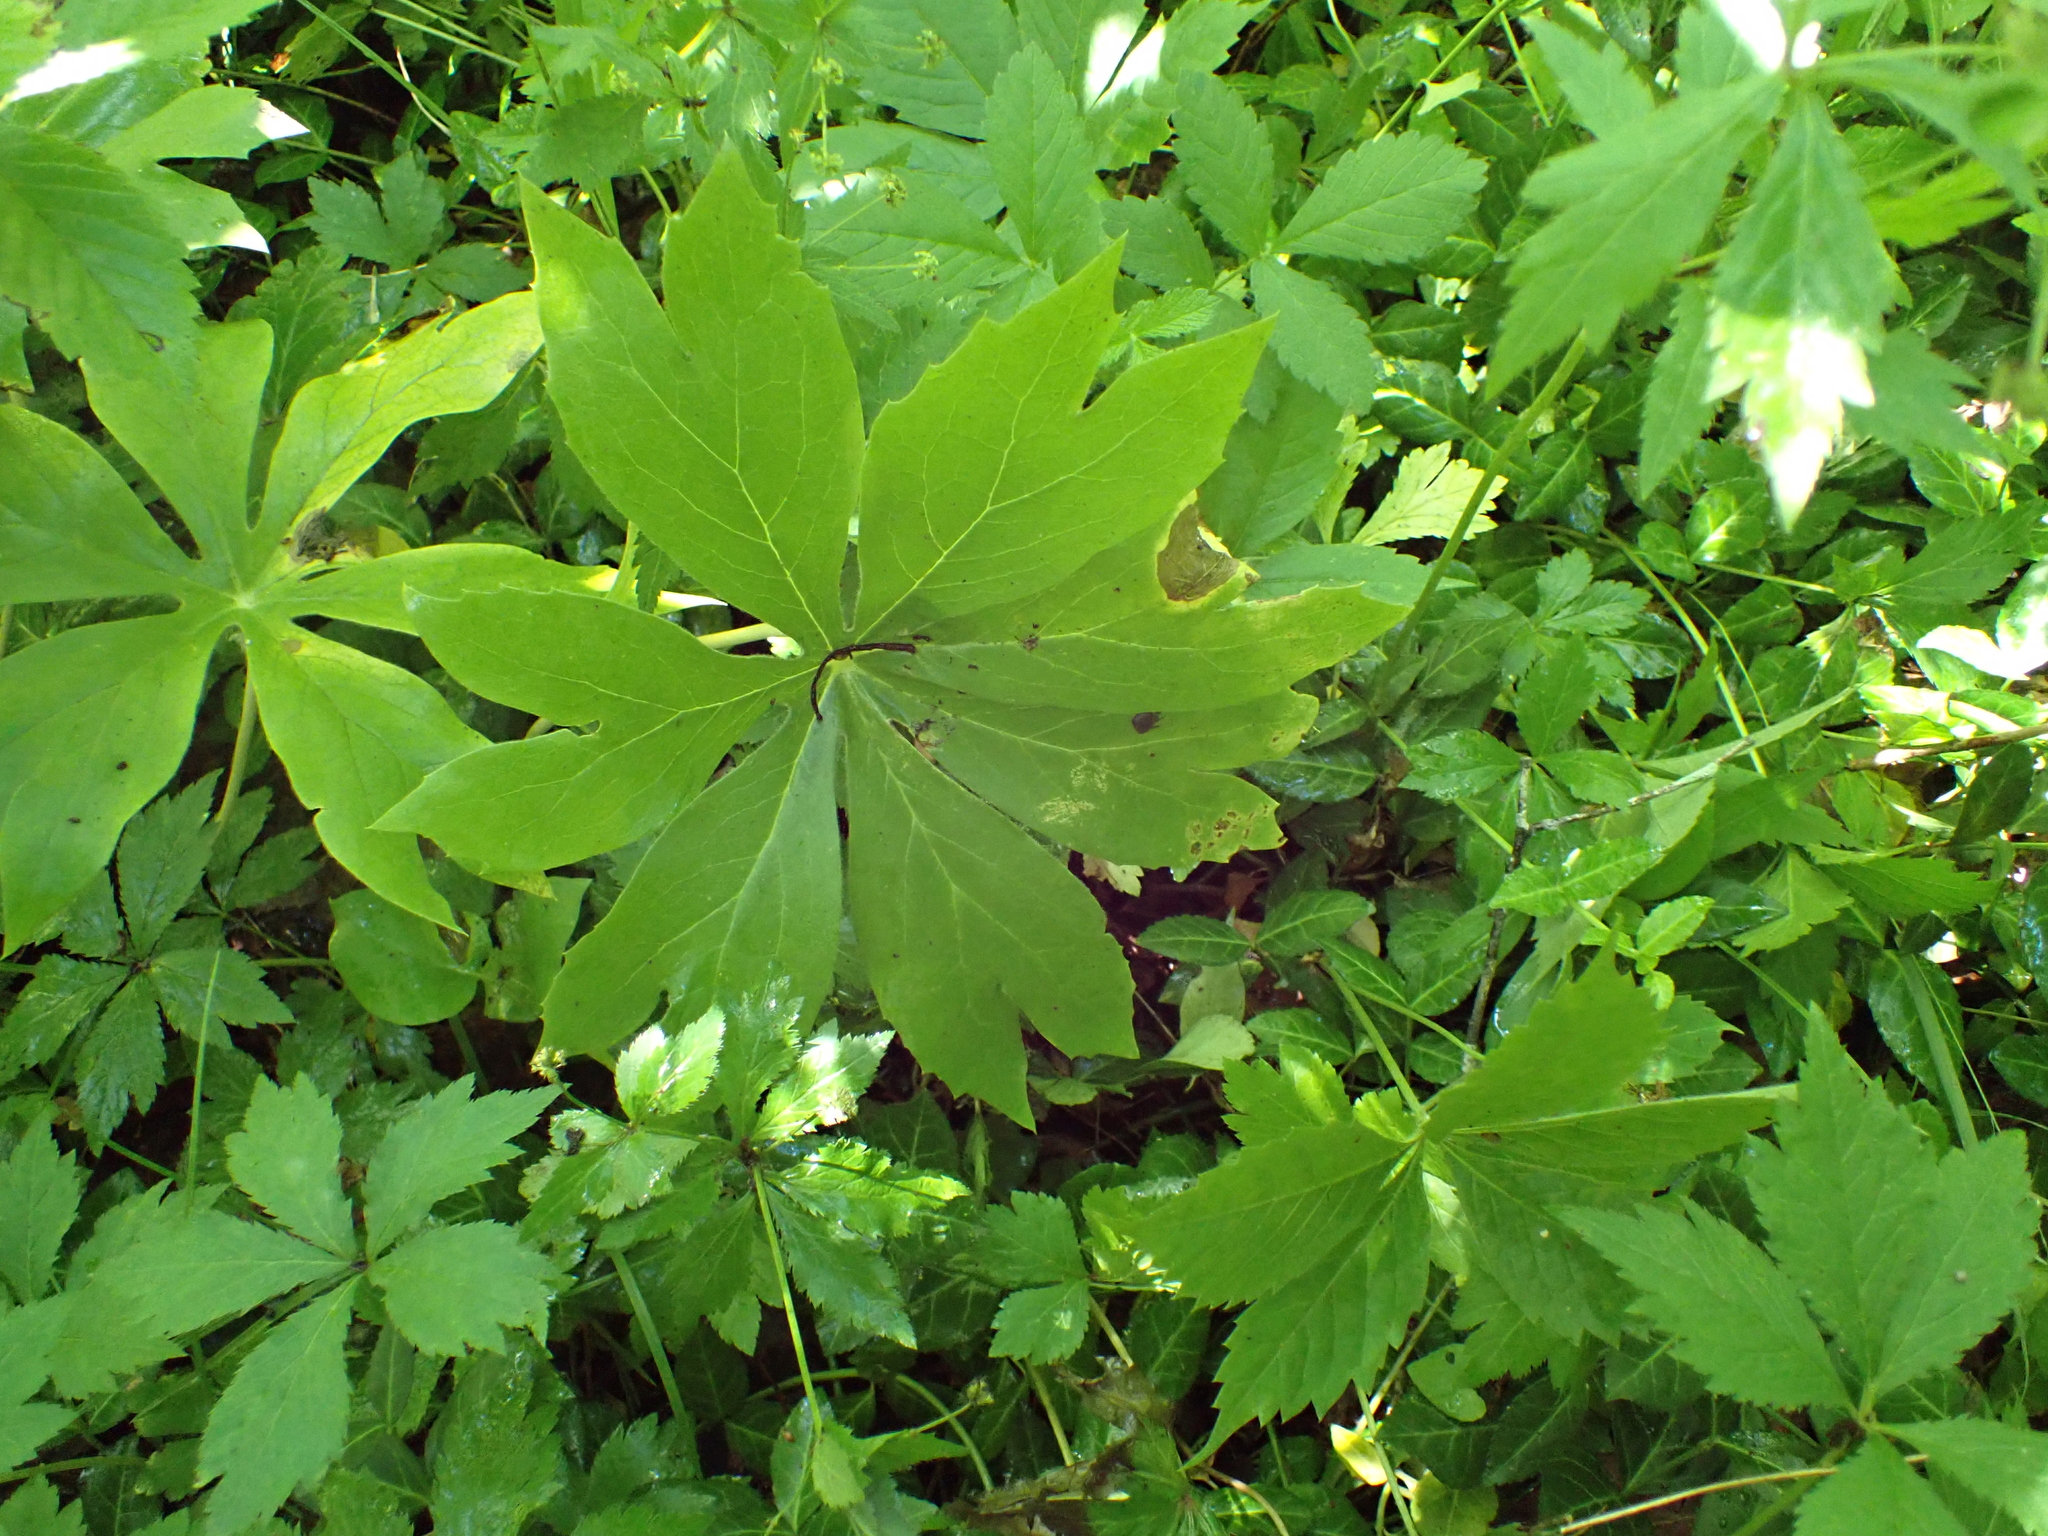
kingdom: Plantae
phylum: Tracheophyta
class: Magnoliopsida
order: Ranunculales
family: Berberidaceae
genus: Podophyllum
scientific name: Podophyllum peltatum
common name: Wild mandrake
